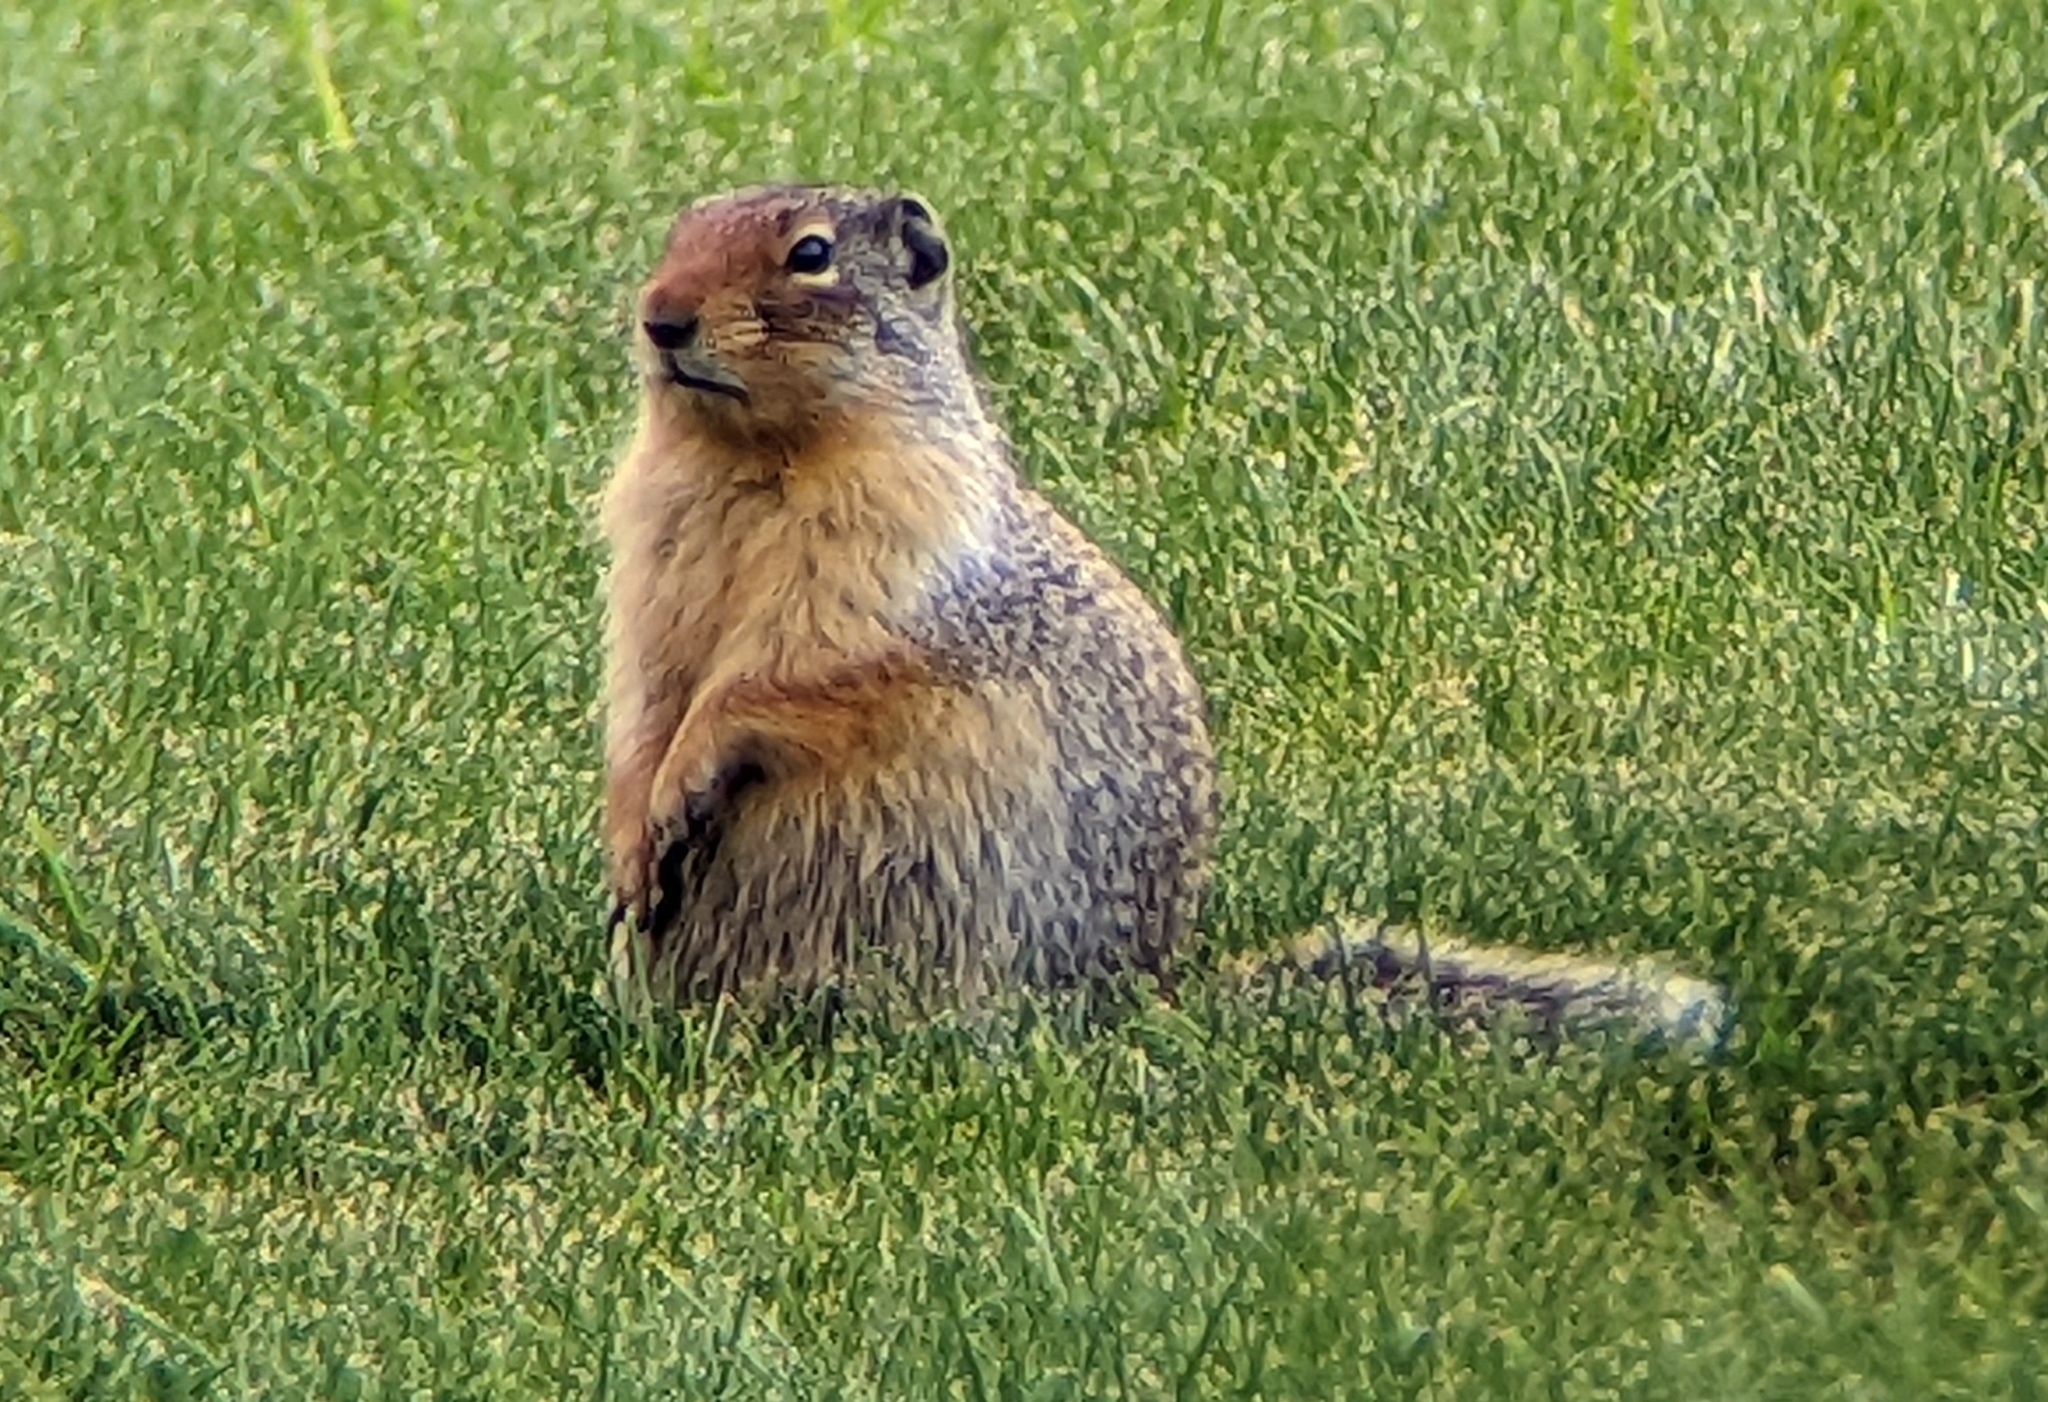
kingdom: Animalia
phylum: Chordata
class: Mammalia
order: Rodentia
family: Sciuridae
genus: Urocitellus
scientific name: Urocitellus columbianus
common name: Columbian ground squirrel
